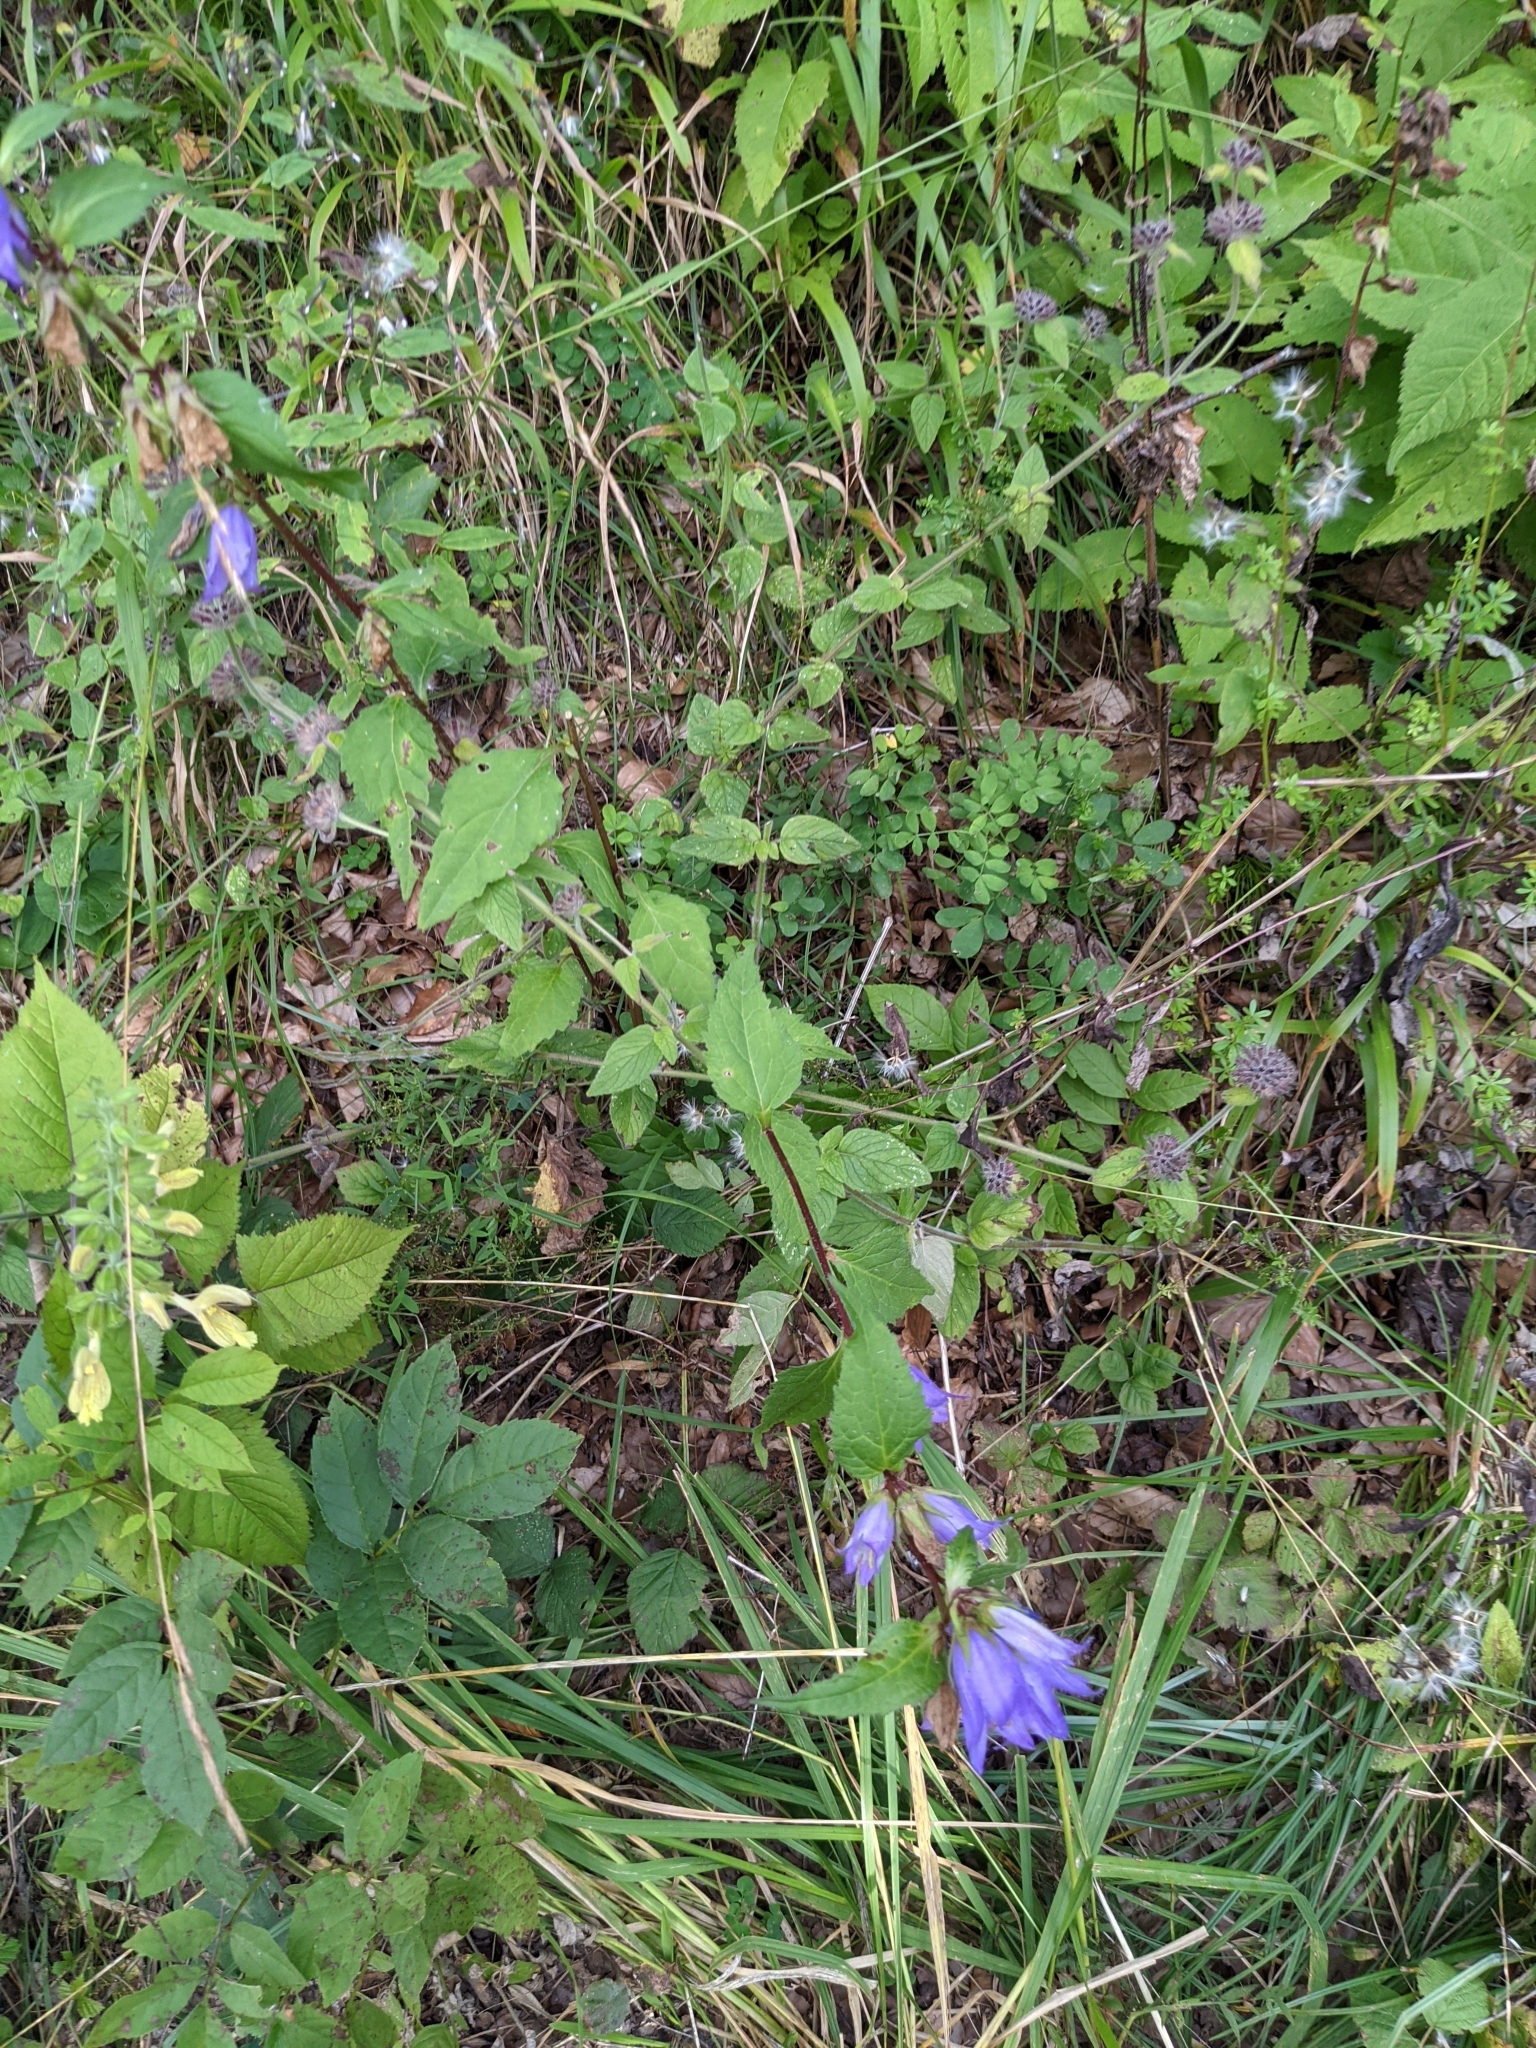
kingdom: Plantae
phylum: Tracheophyta
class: Magnoliopsida
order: Asterales
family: Campanulaceae
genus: Campanula
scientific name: Campanula trachelium
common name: Nettle-leaved bellflower
